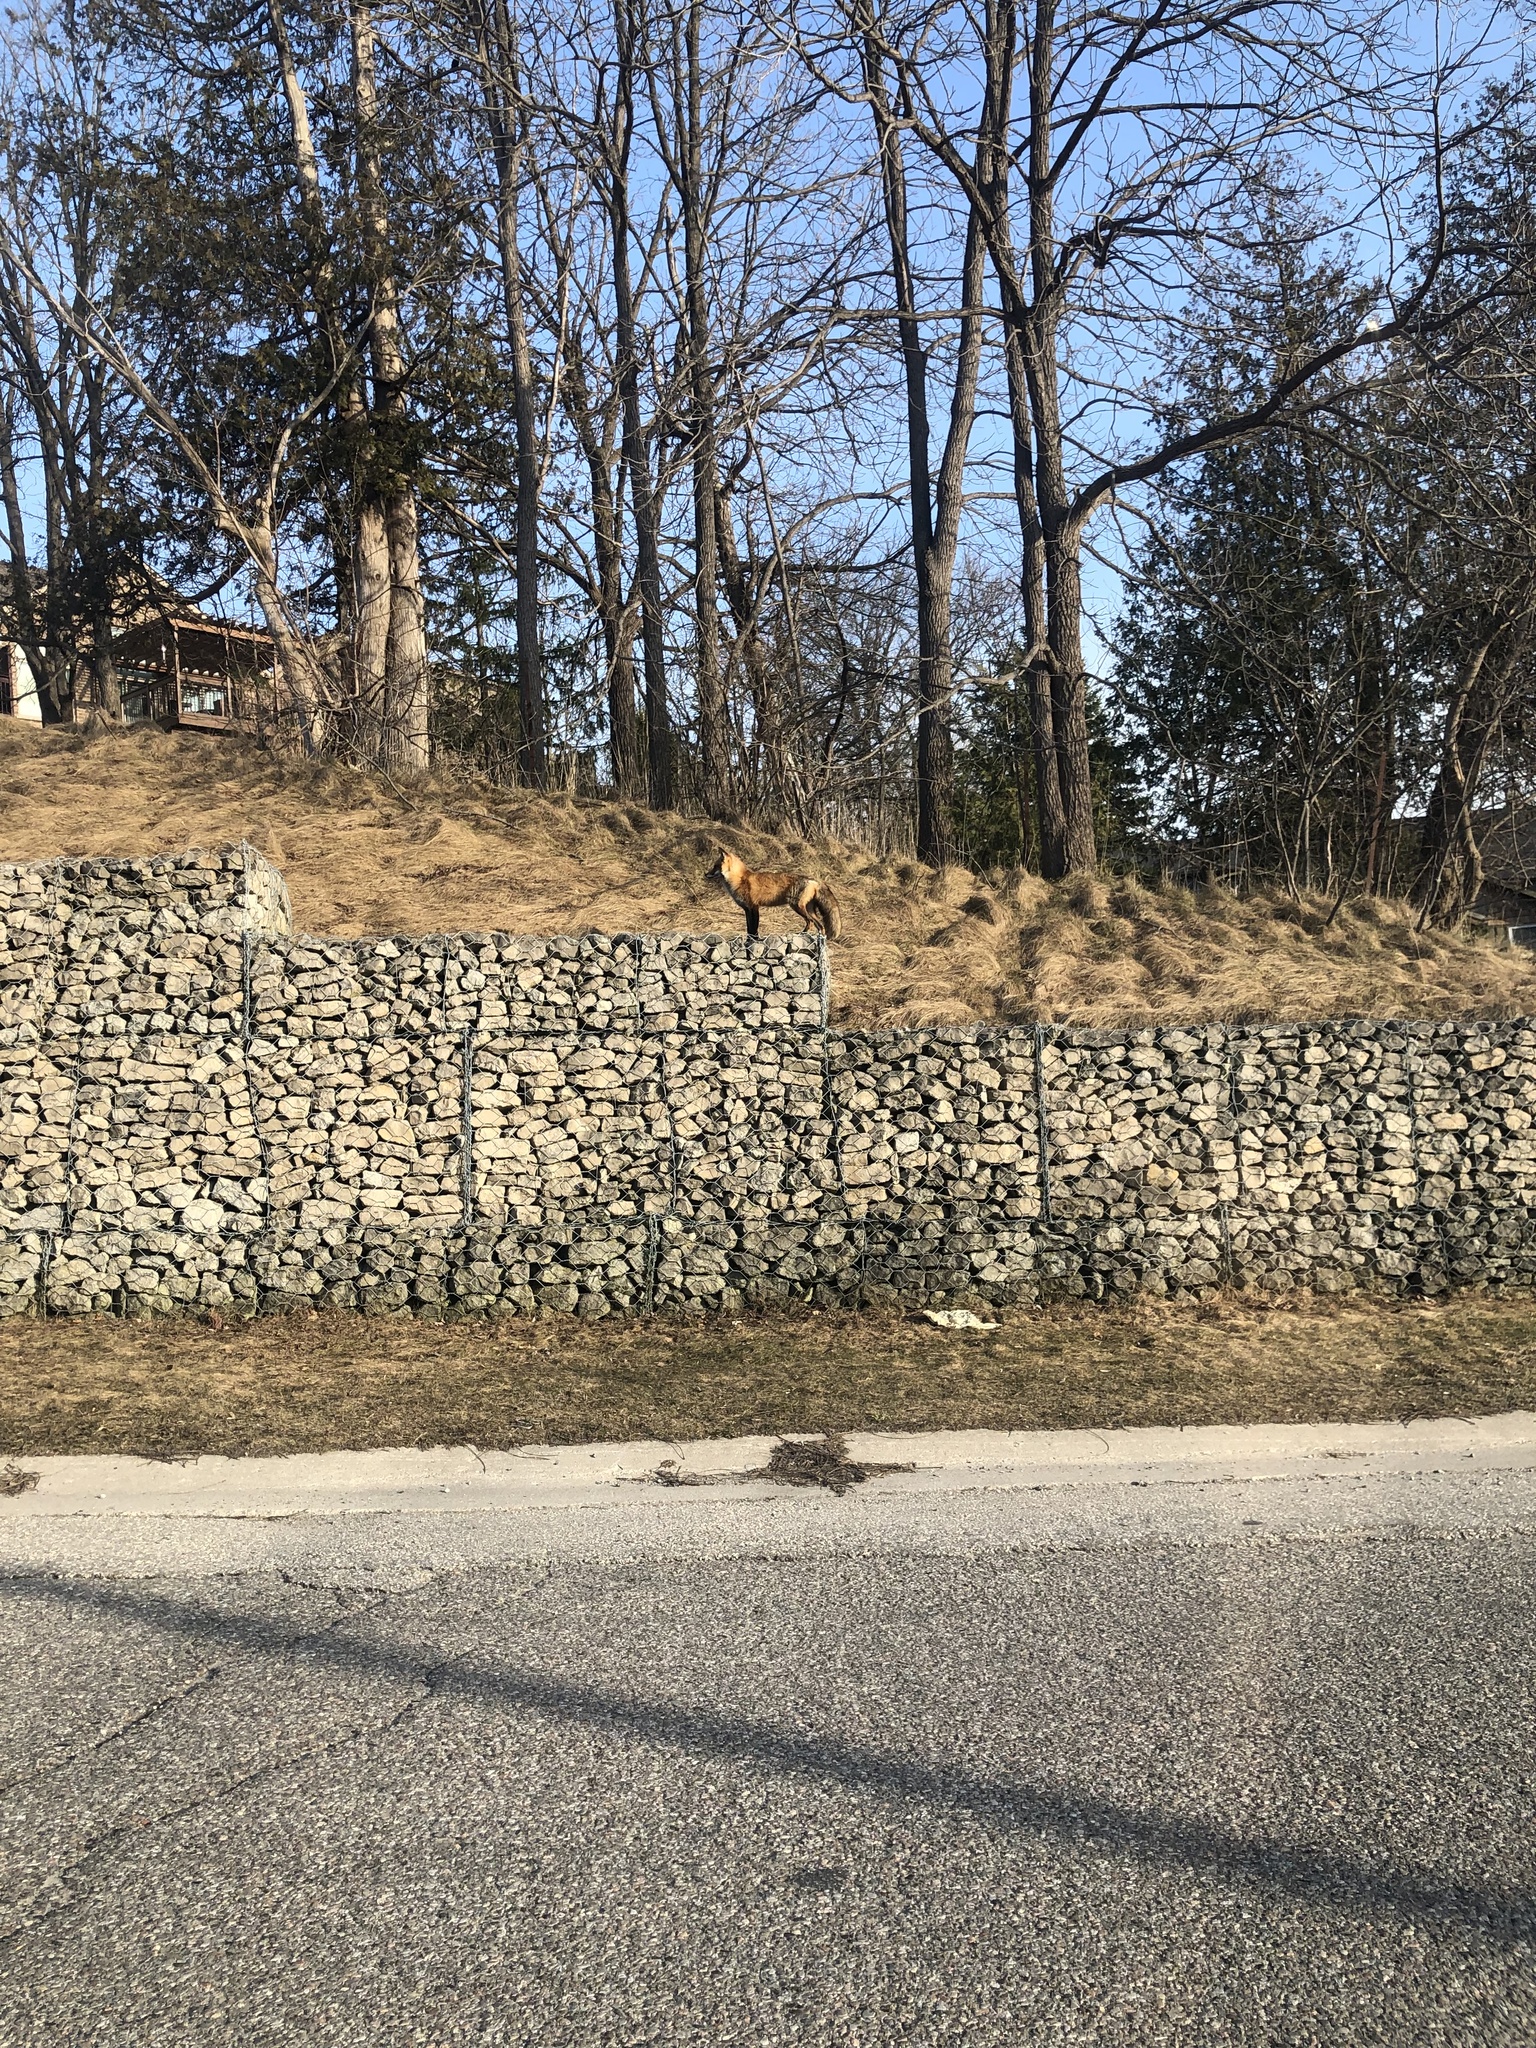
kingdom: Animalia
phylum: Chordata
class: Mammalia
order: Carnivora
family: Canidae
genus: Vulpes
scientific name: Vulpes vulpes
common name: Red fox
